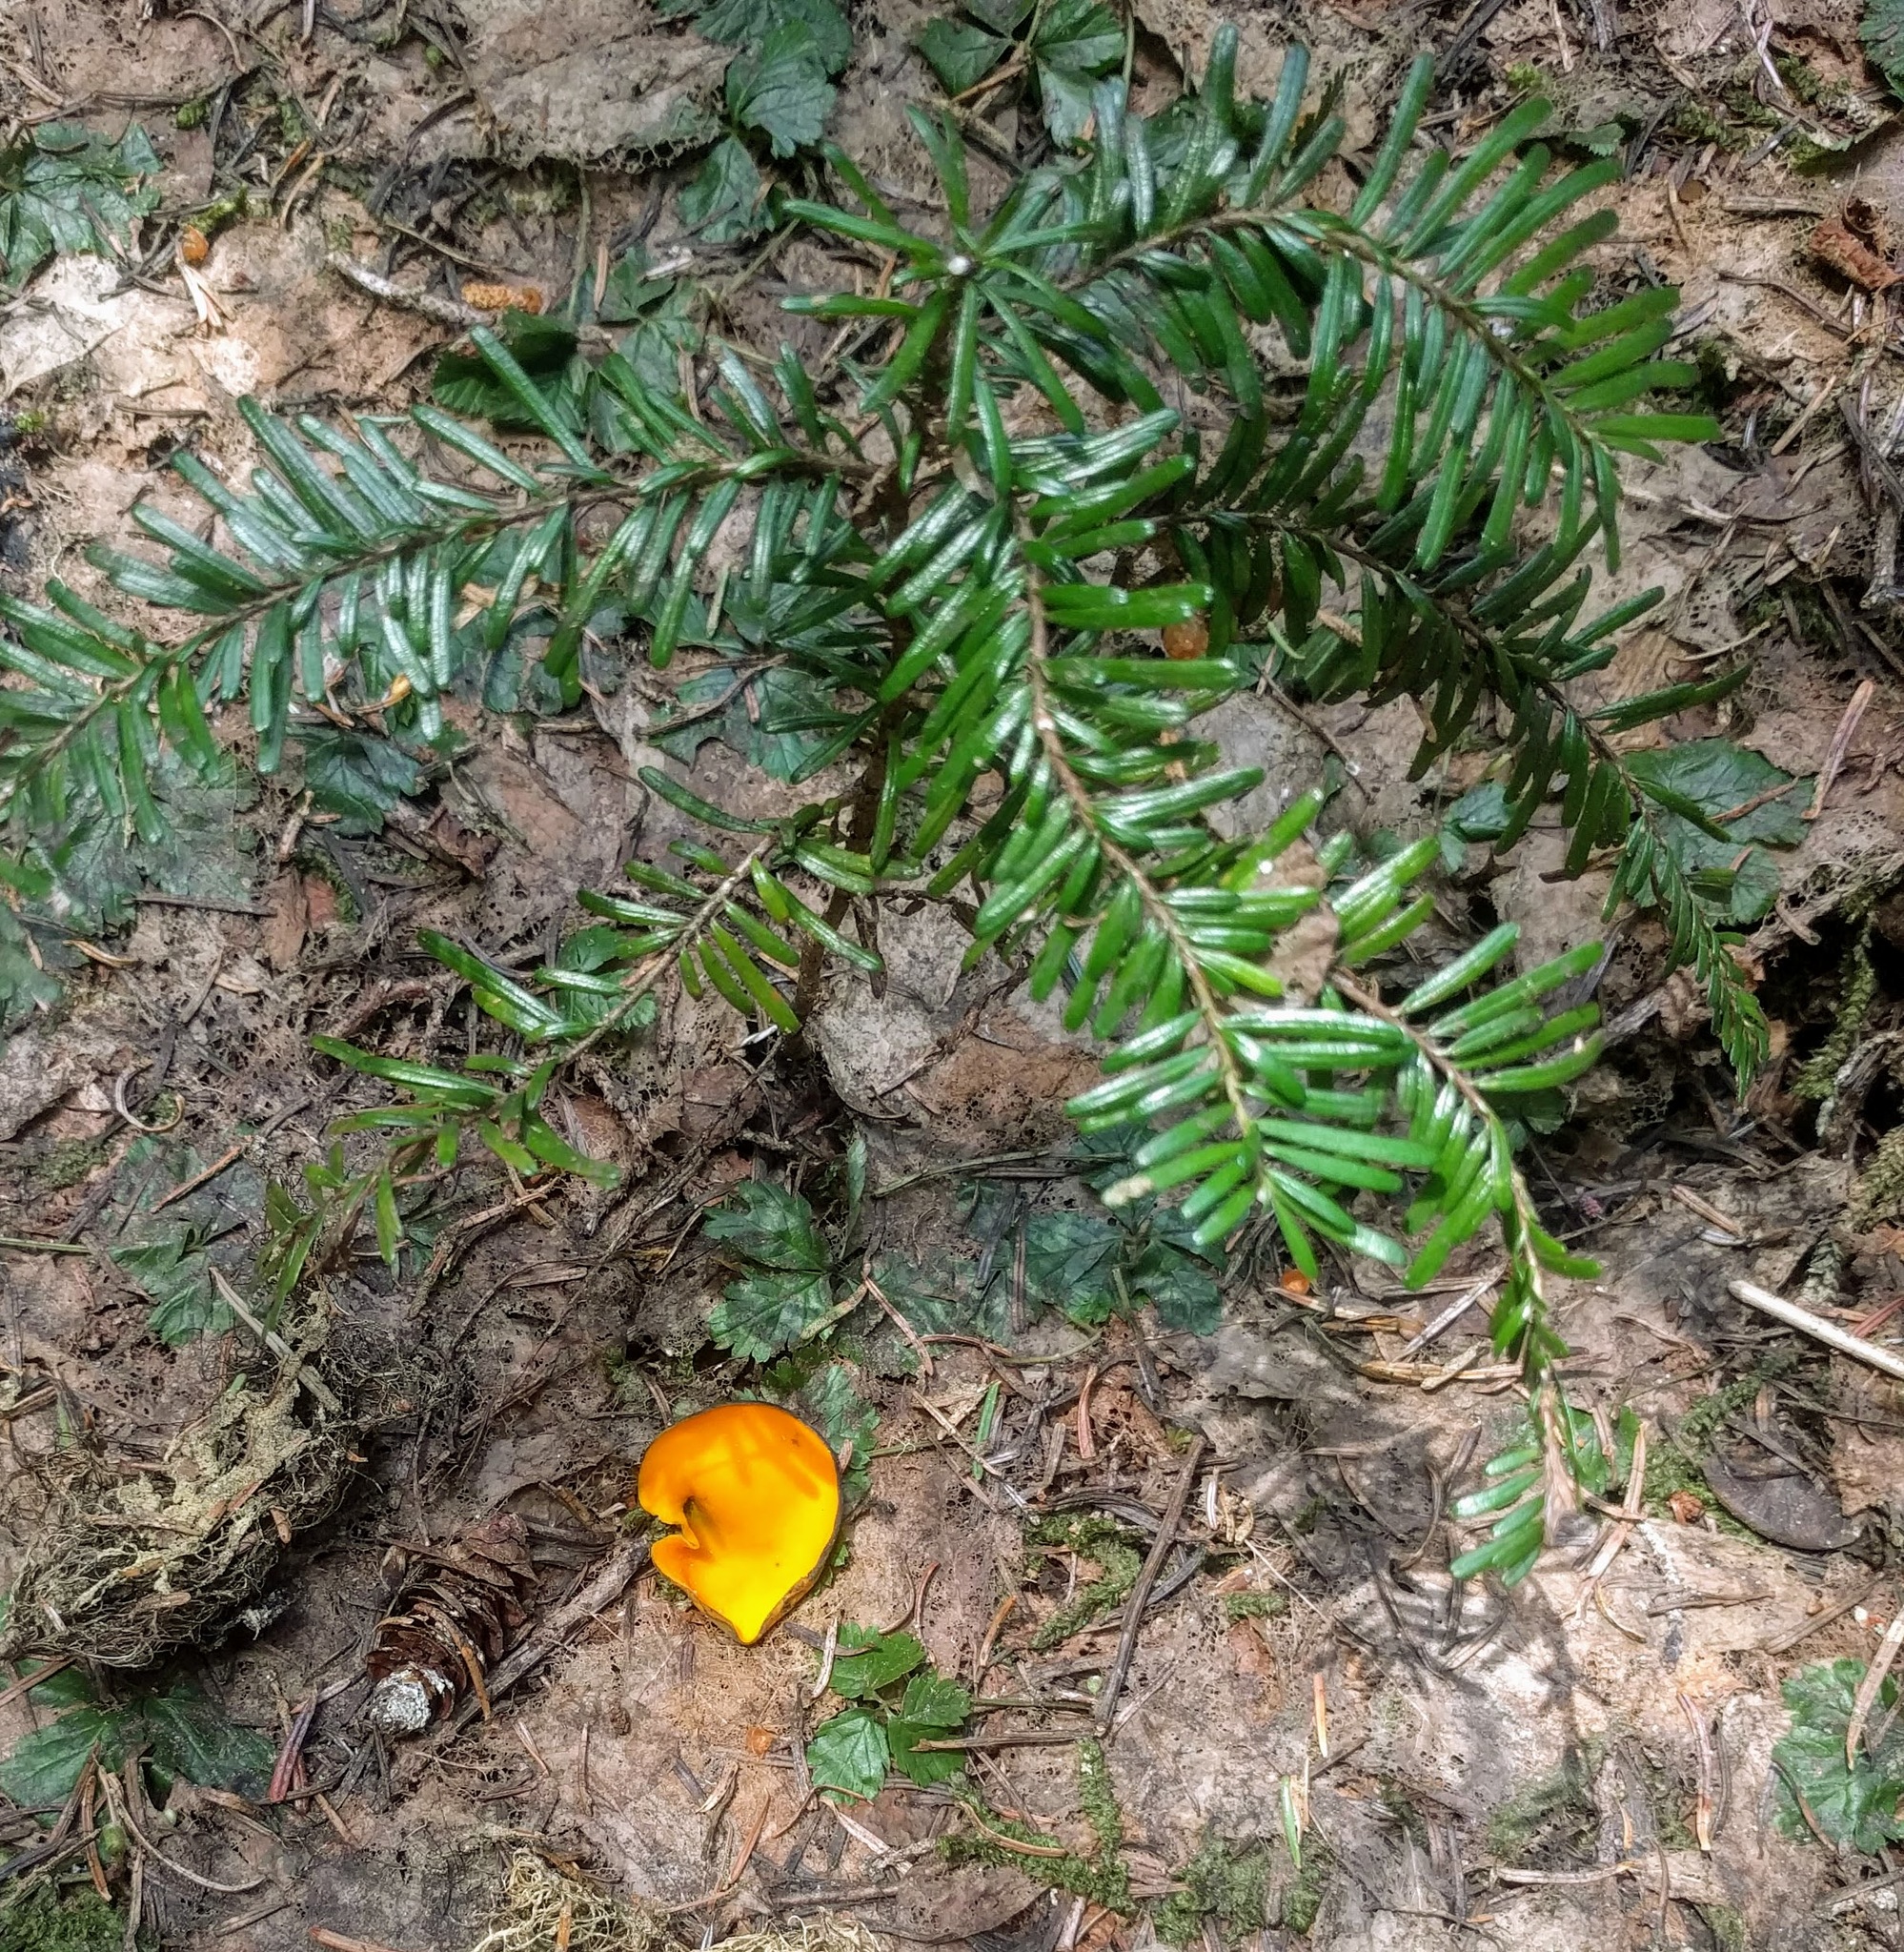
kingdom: Fungi
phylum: Ascomycota
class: Pezizomycetes
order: Pezizales
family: Caloscyphaceae
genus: Caloscypha
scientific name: Caloscypha fulgens
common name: Golden cup
